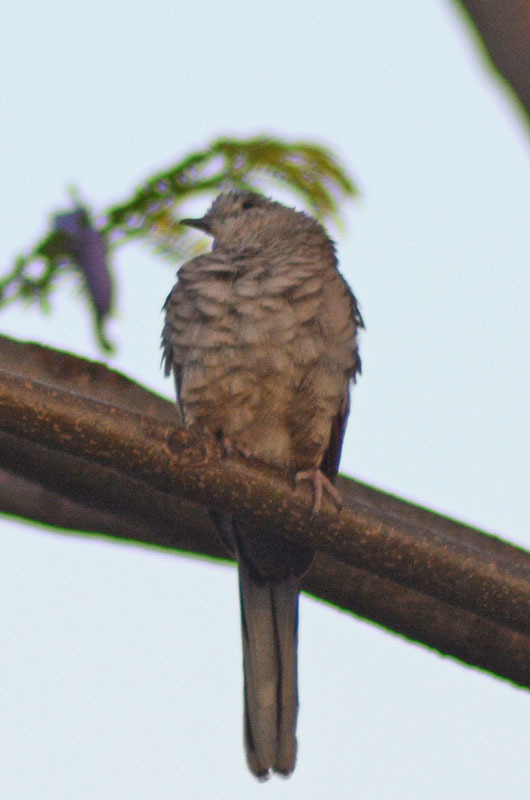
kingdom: Animalia
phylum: Chordata
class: Aves
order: Columbiformes
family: Columbidae
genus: Columbina
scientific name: Columbina inca
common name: Inca dove
